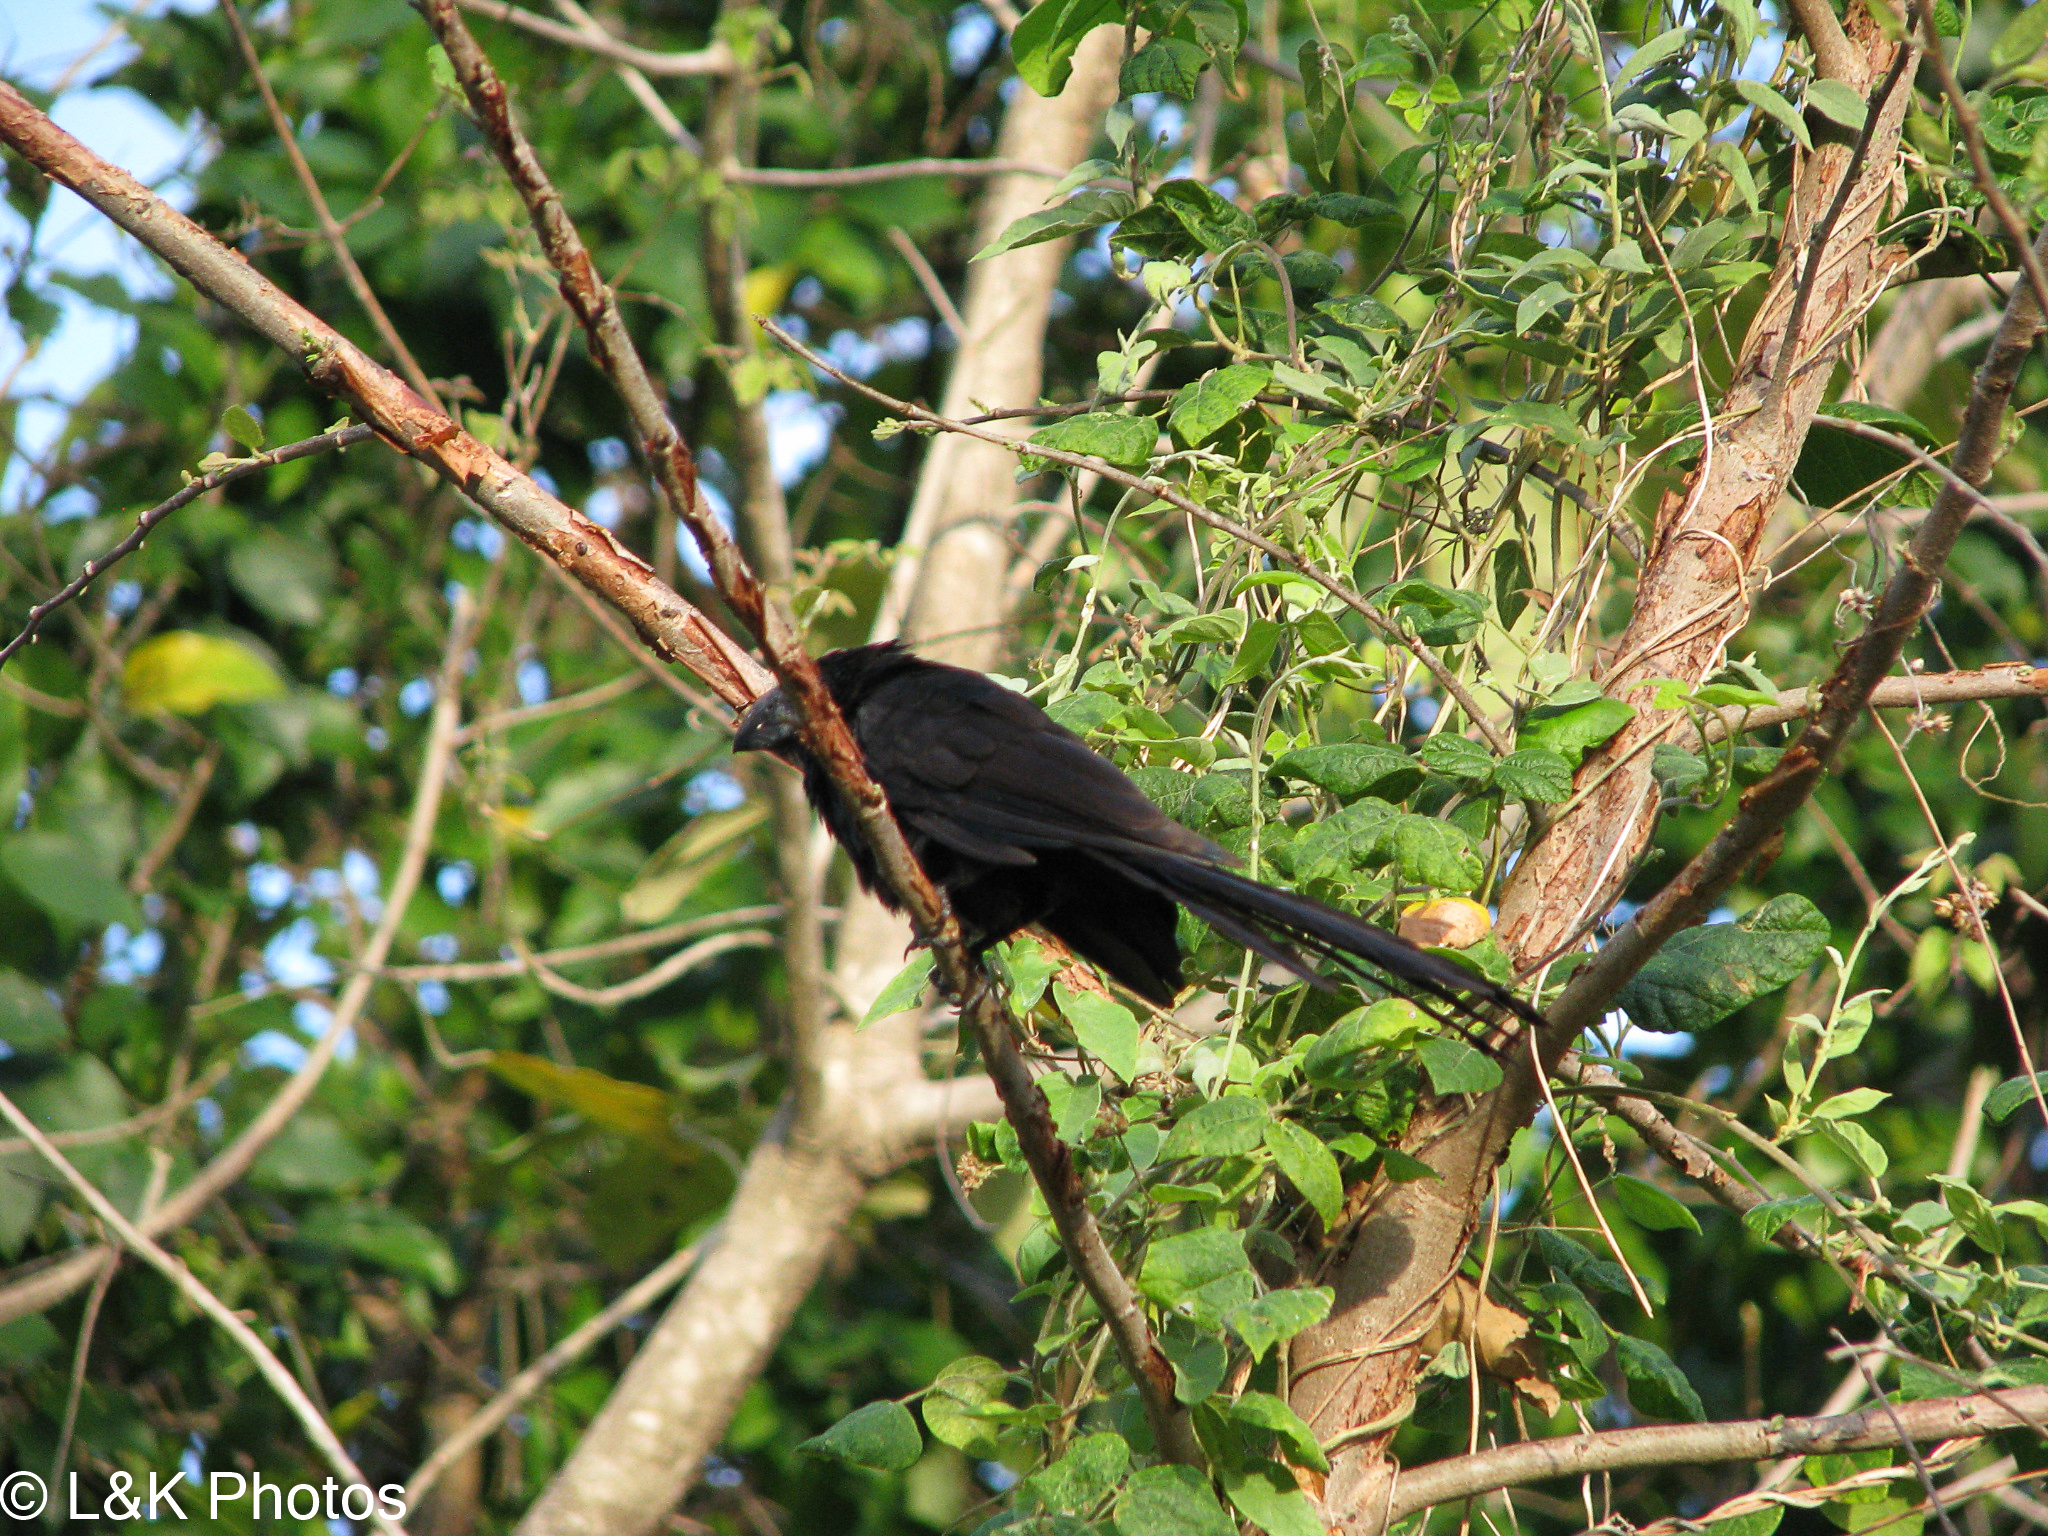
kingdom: Animalia
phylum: Chordata
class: Aves
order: Cuculiformes
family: Cuculidae
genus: Crotophaga
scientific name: Crotophaga sulcirostris
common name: Groove-billed ani
